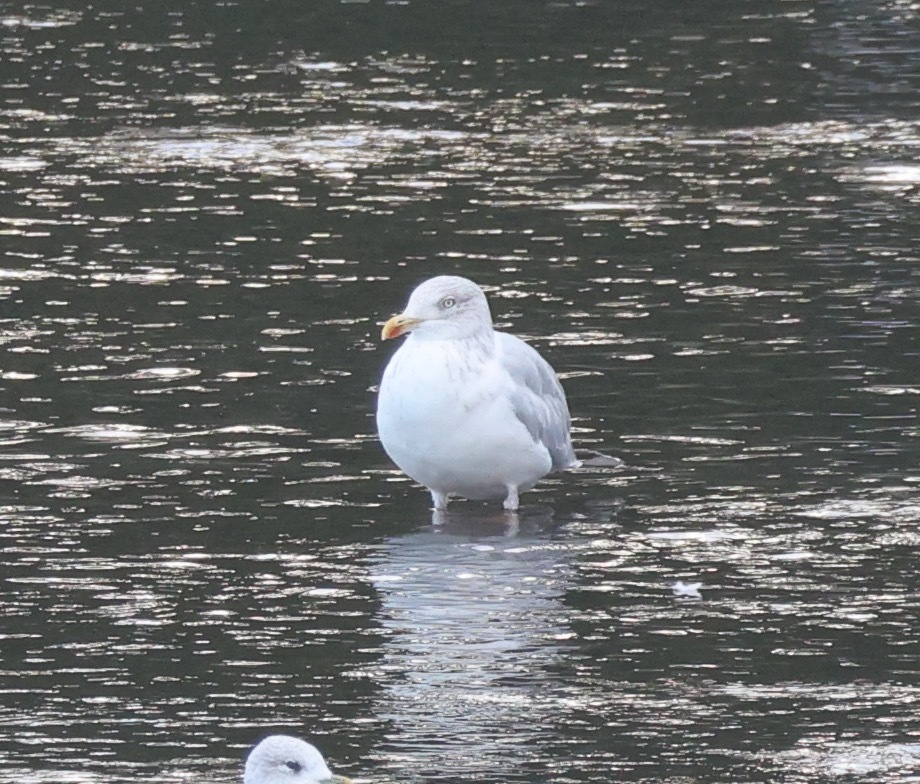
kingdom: Animalia
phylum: Chordata
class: Aves
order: Charadriiformes
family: Laridae
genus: Larus
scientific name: Larus argentatus
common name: Herring gull
